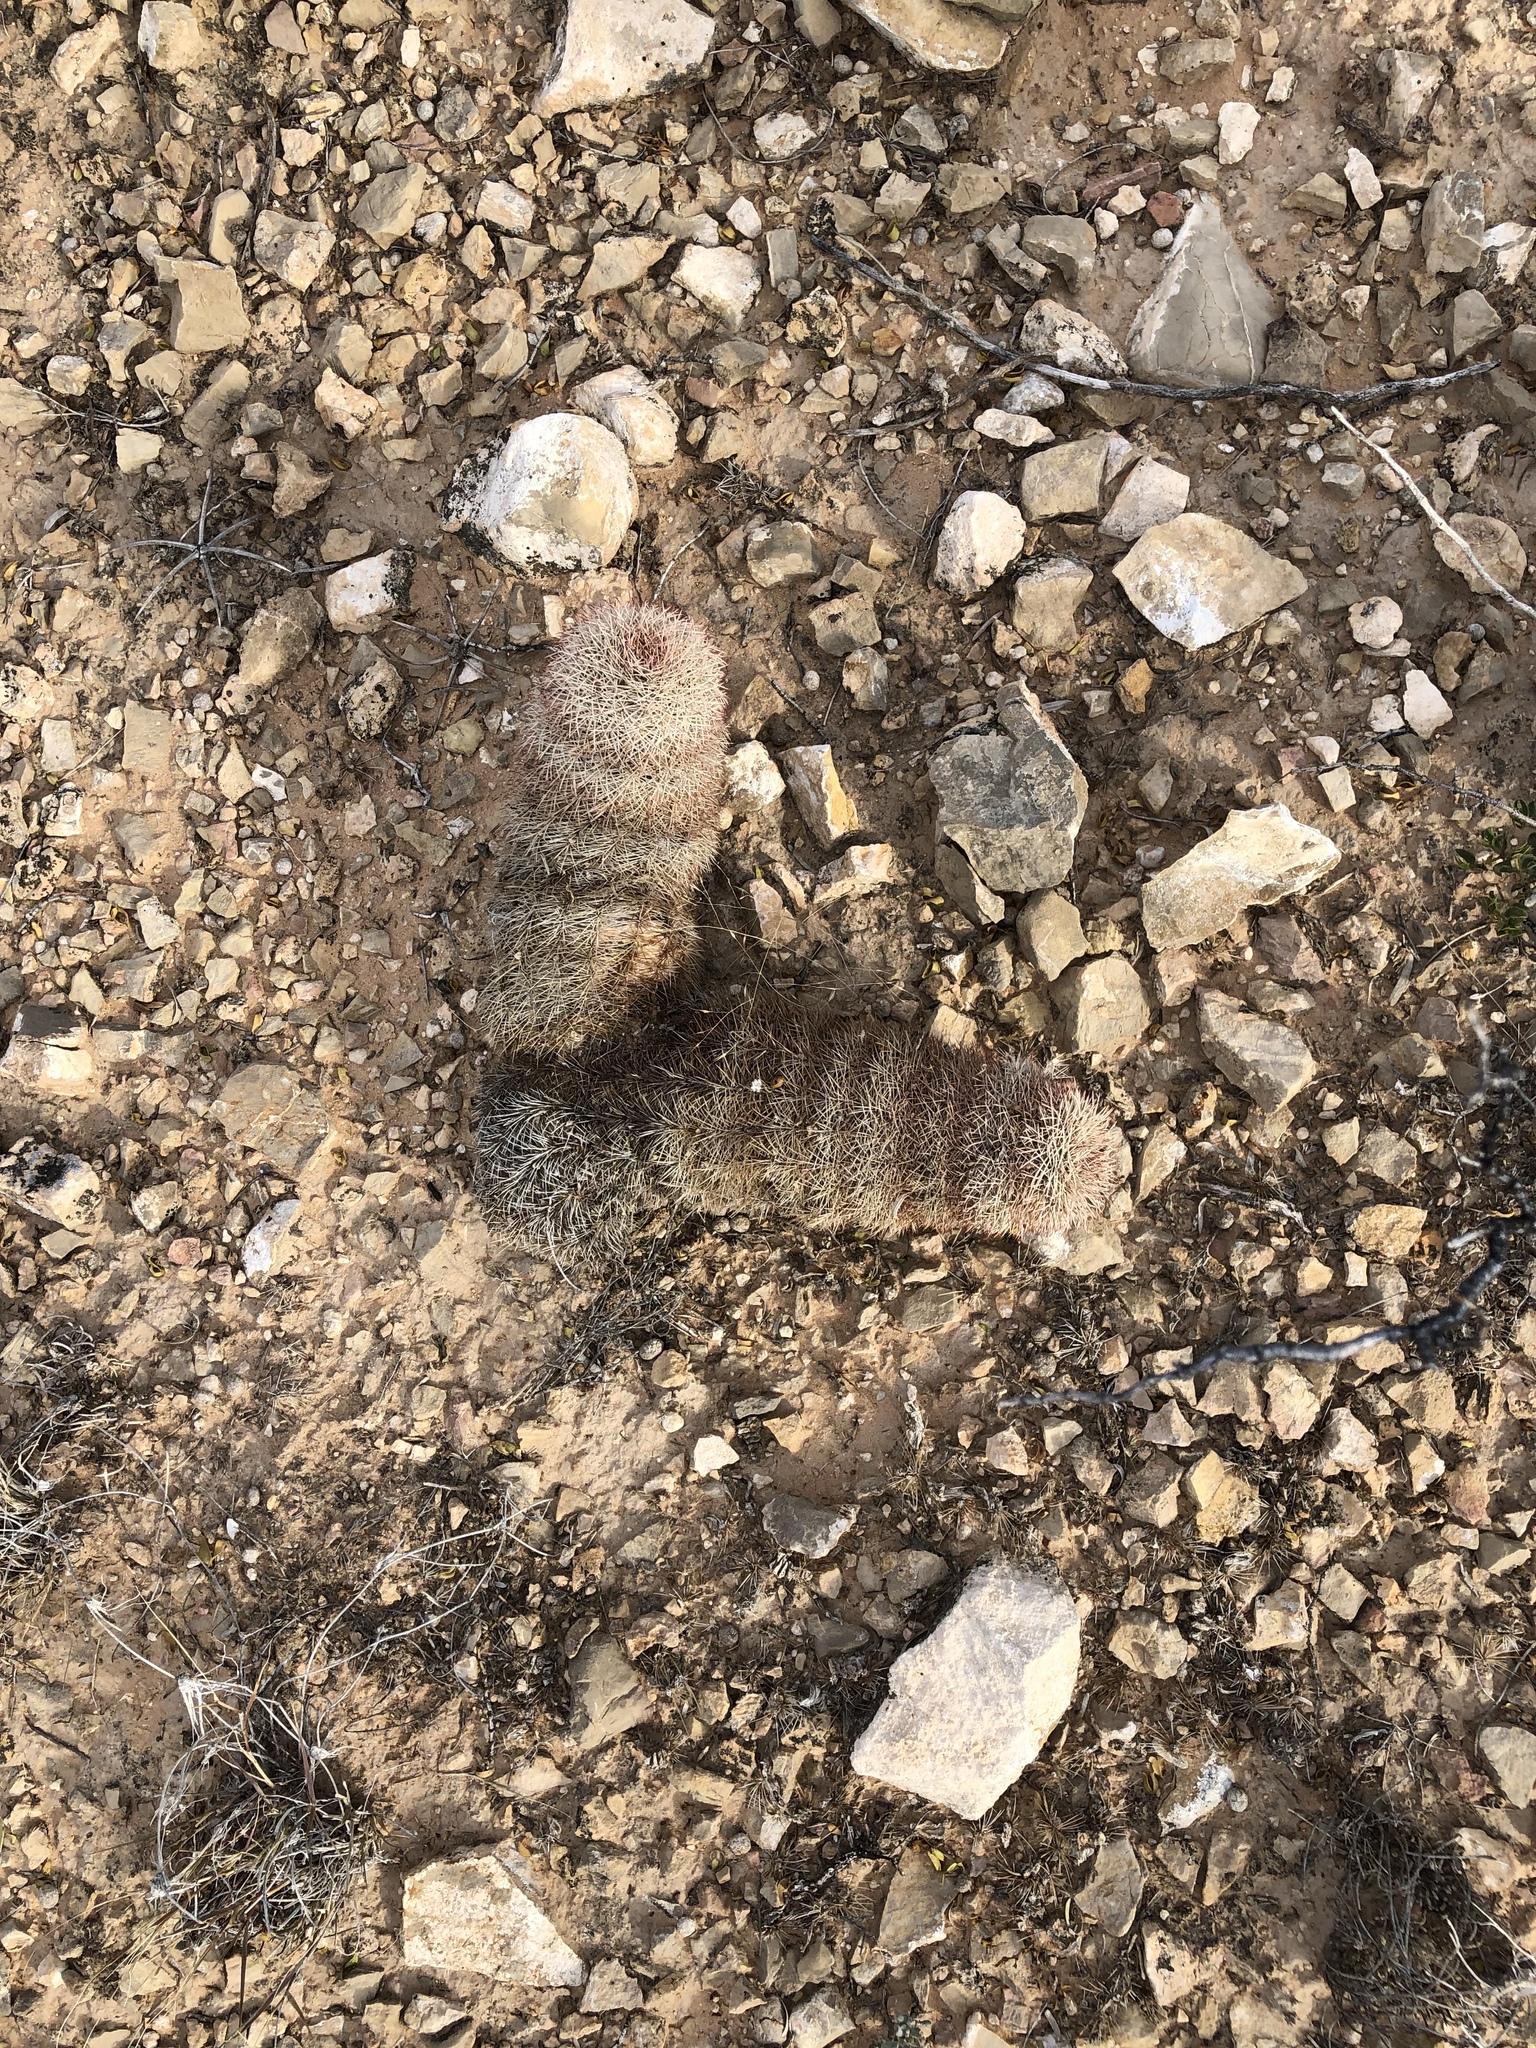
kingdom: Plantae
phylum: Tracheophyta
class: Magnoliopsida
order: Caryophyllales
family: Cactaceae
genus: Echinocereus
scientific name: Echinocereus dasyacanthus
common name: Spiny hedgehog cactus
